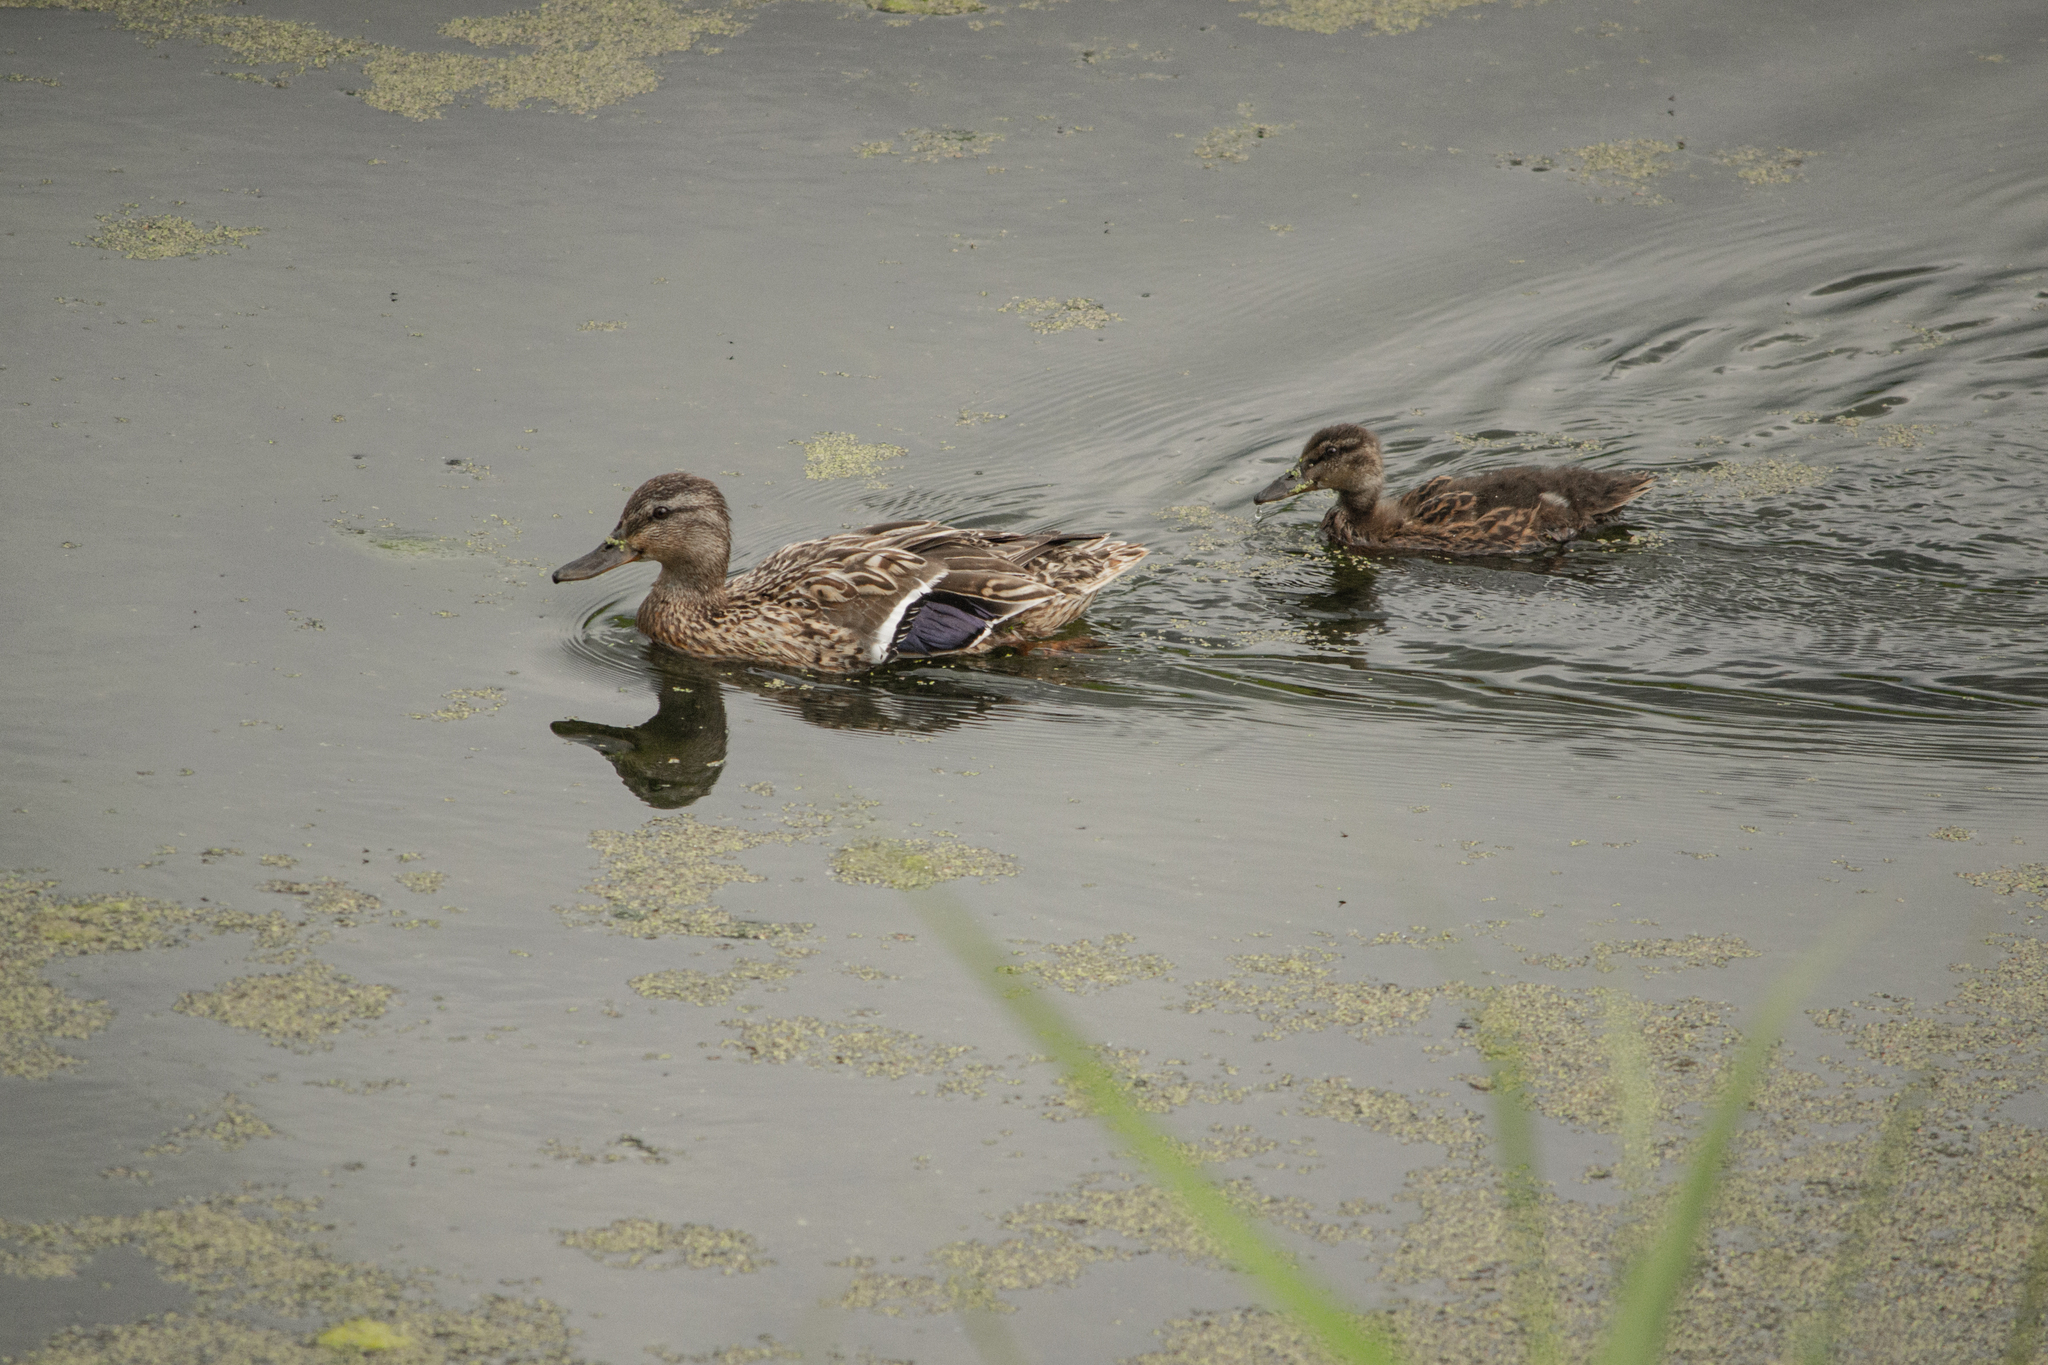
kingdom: Animalia
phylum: Chordata
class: Aves
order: Anseriformes
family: Anatidae
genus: Anas
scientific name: Anas platyrhynchos
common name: Mallard
